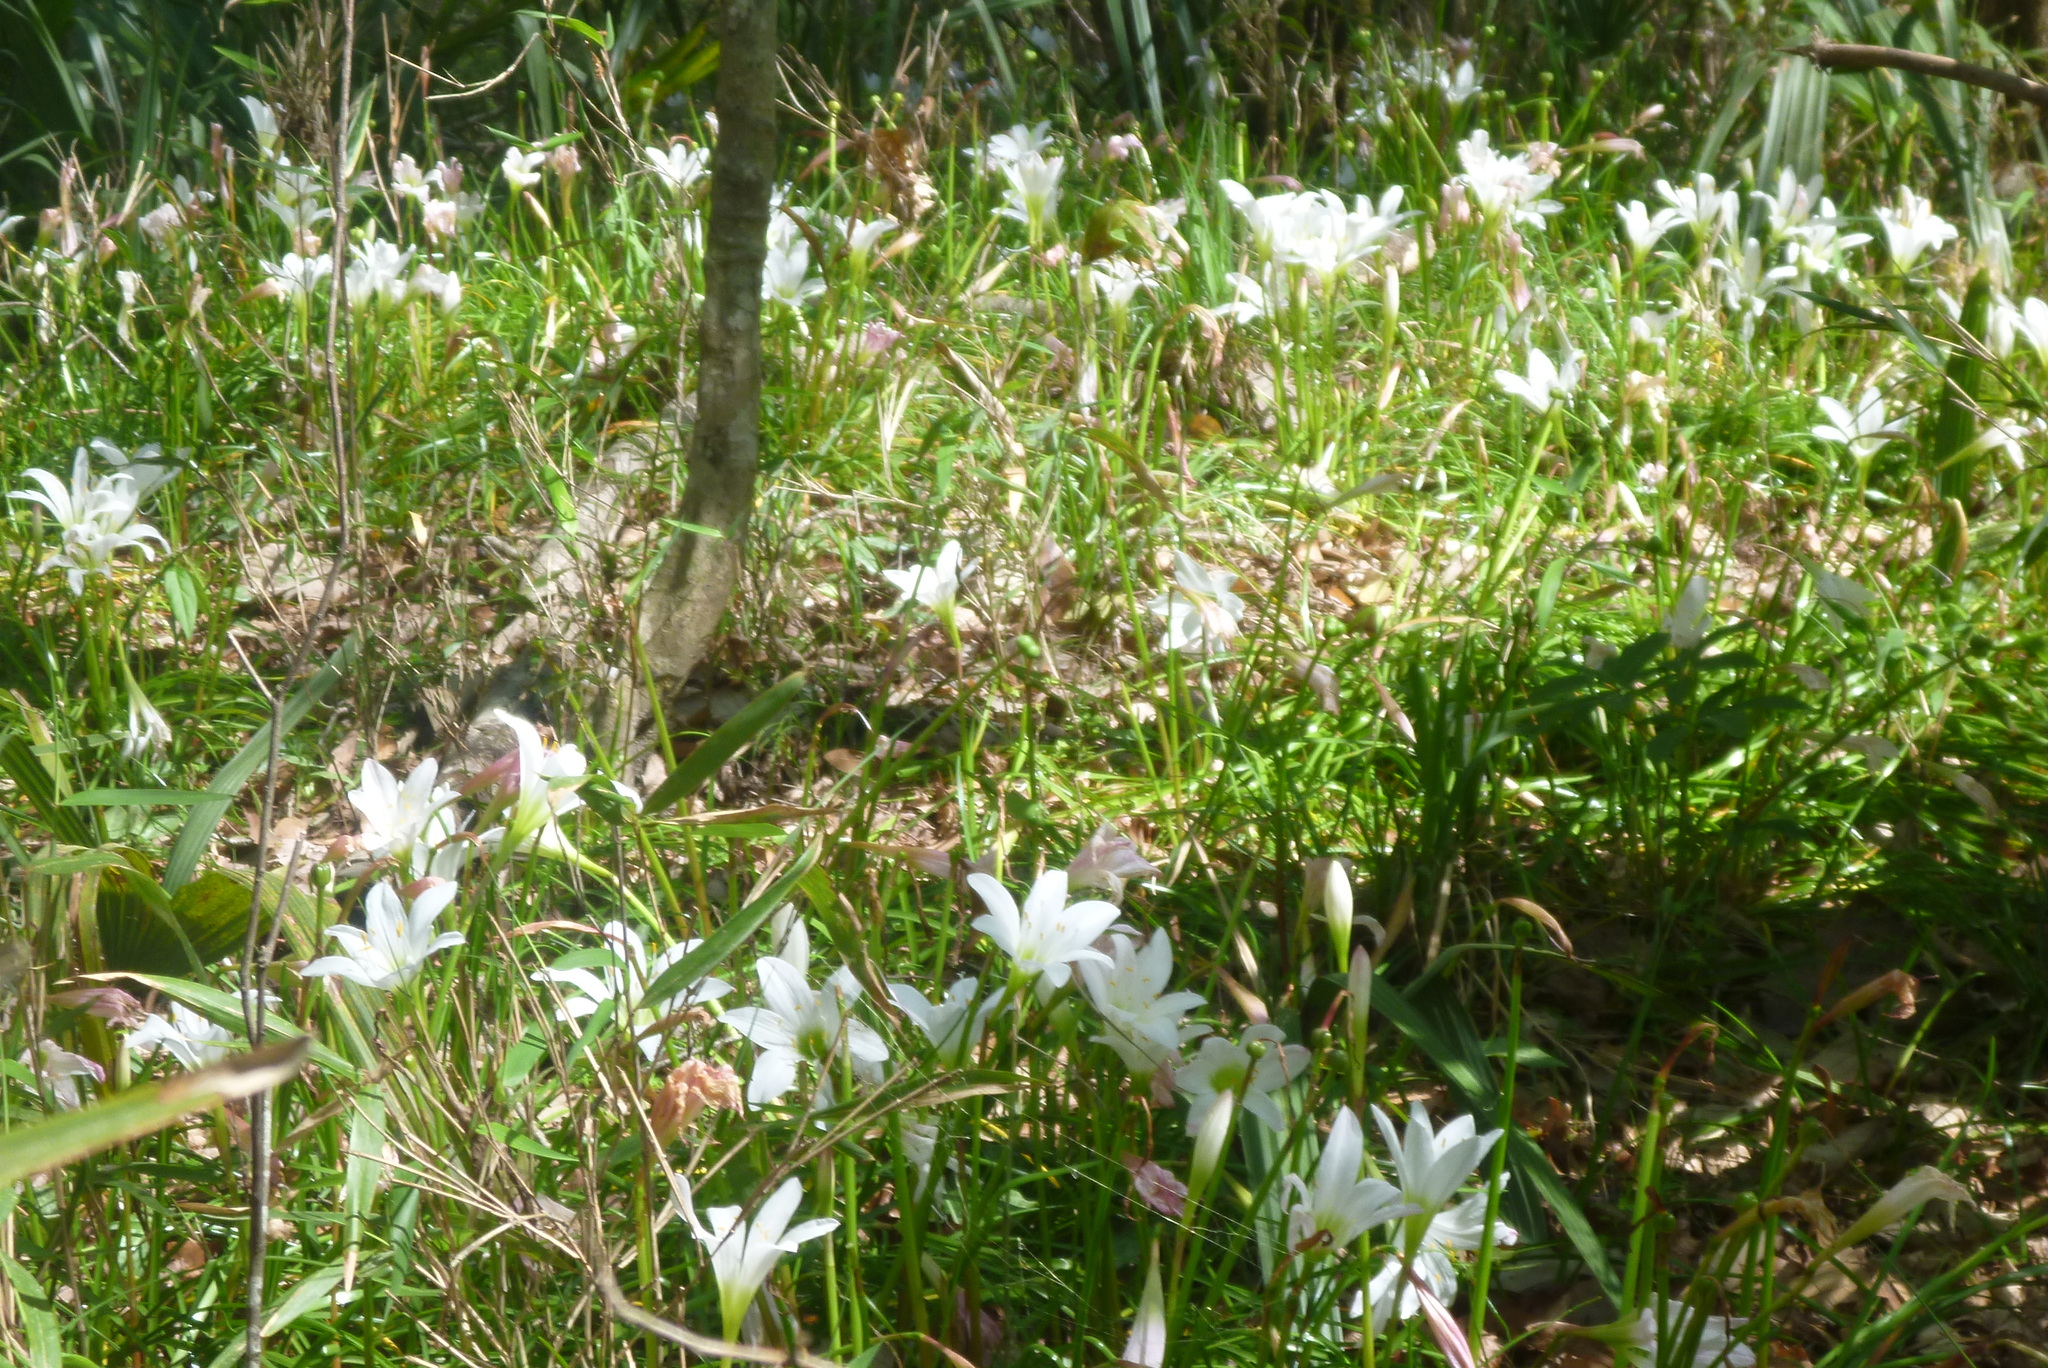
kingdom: Plantae
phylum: Tracheophyta
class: Liliopsida
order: Asparagales
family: Amaryllidaceae
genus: Zephyranthes
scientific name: Zephyranthes atamasco
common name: Atamasco lily
